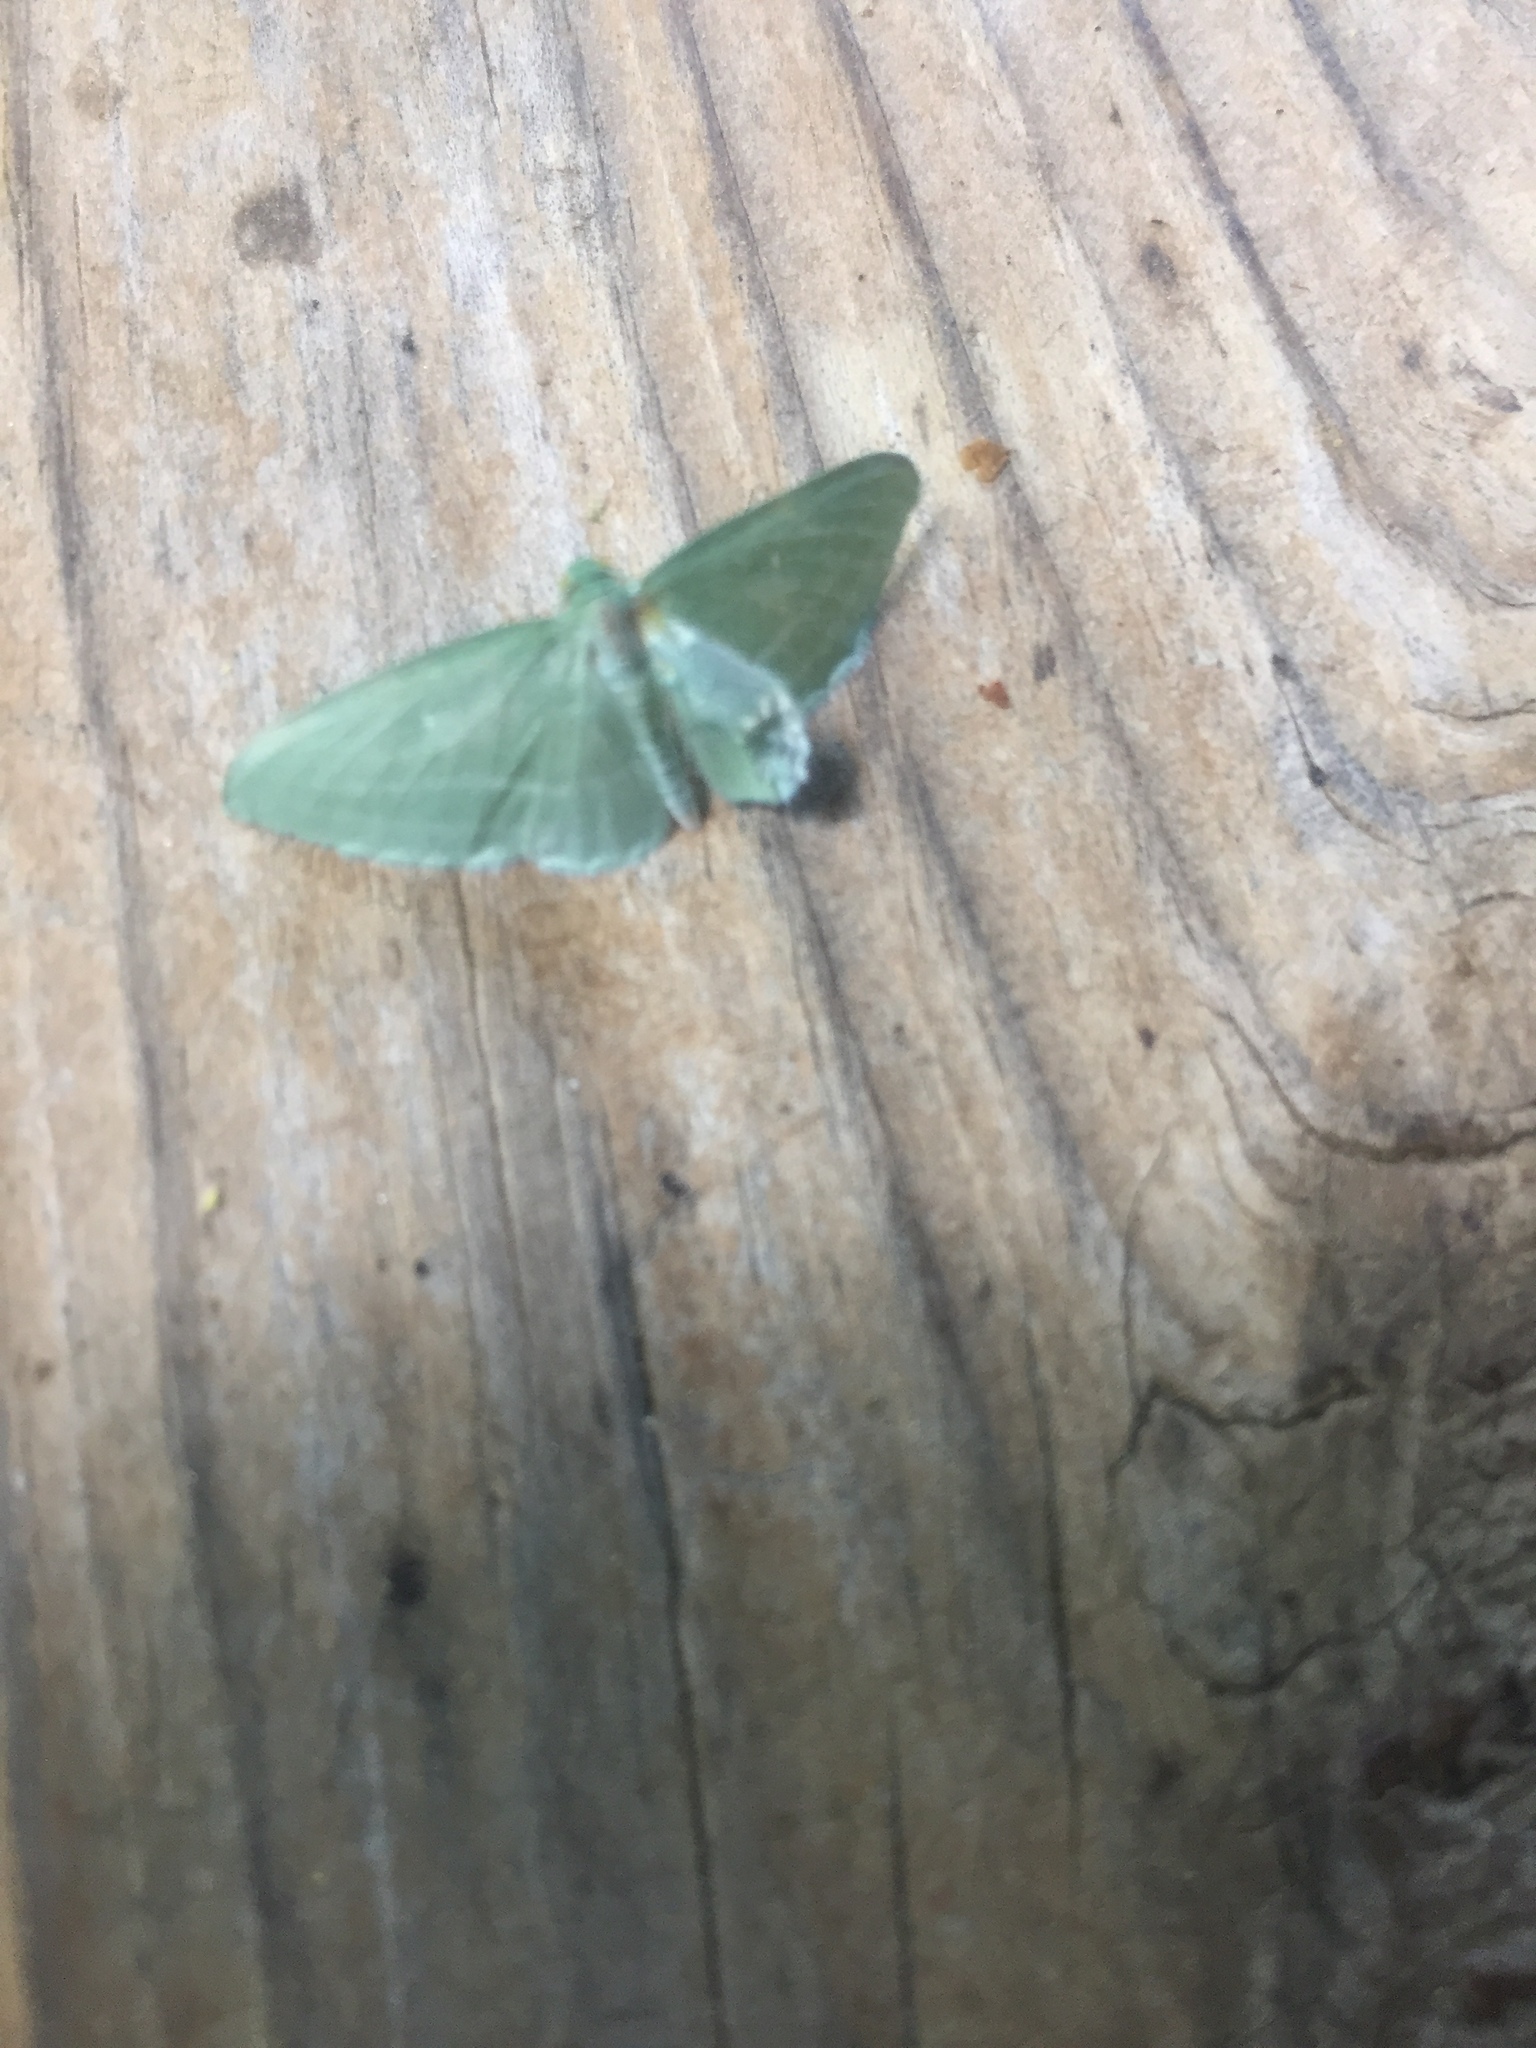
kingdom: Animalia
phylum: Arthropoda
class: Insecta
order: Lepidoptera
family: Geometridae
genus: Dyspteris
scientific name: Dyspteris abortivaria
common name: Bad-wing
